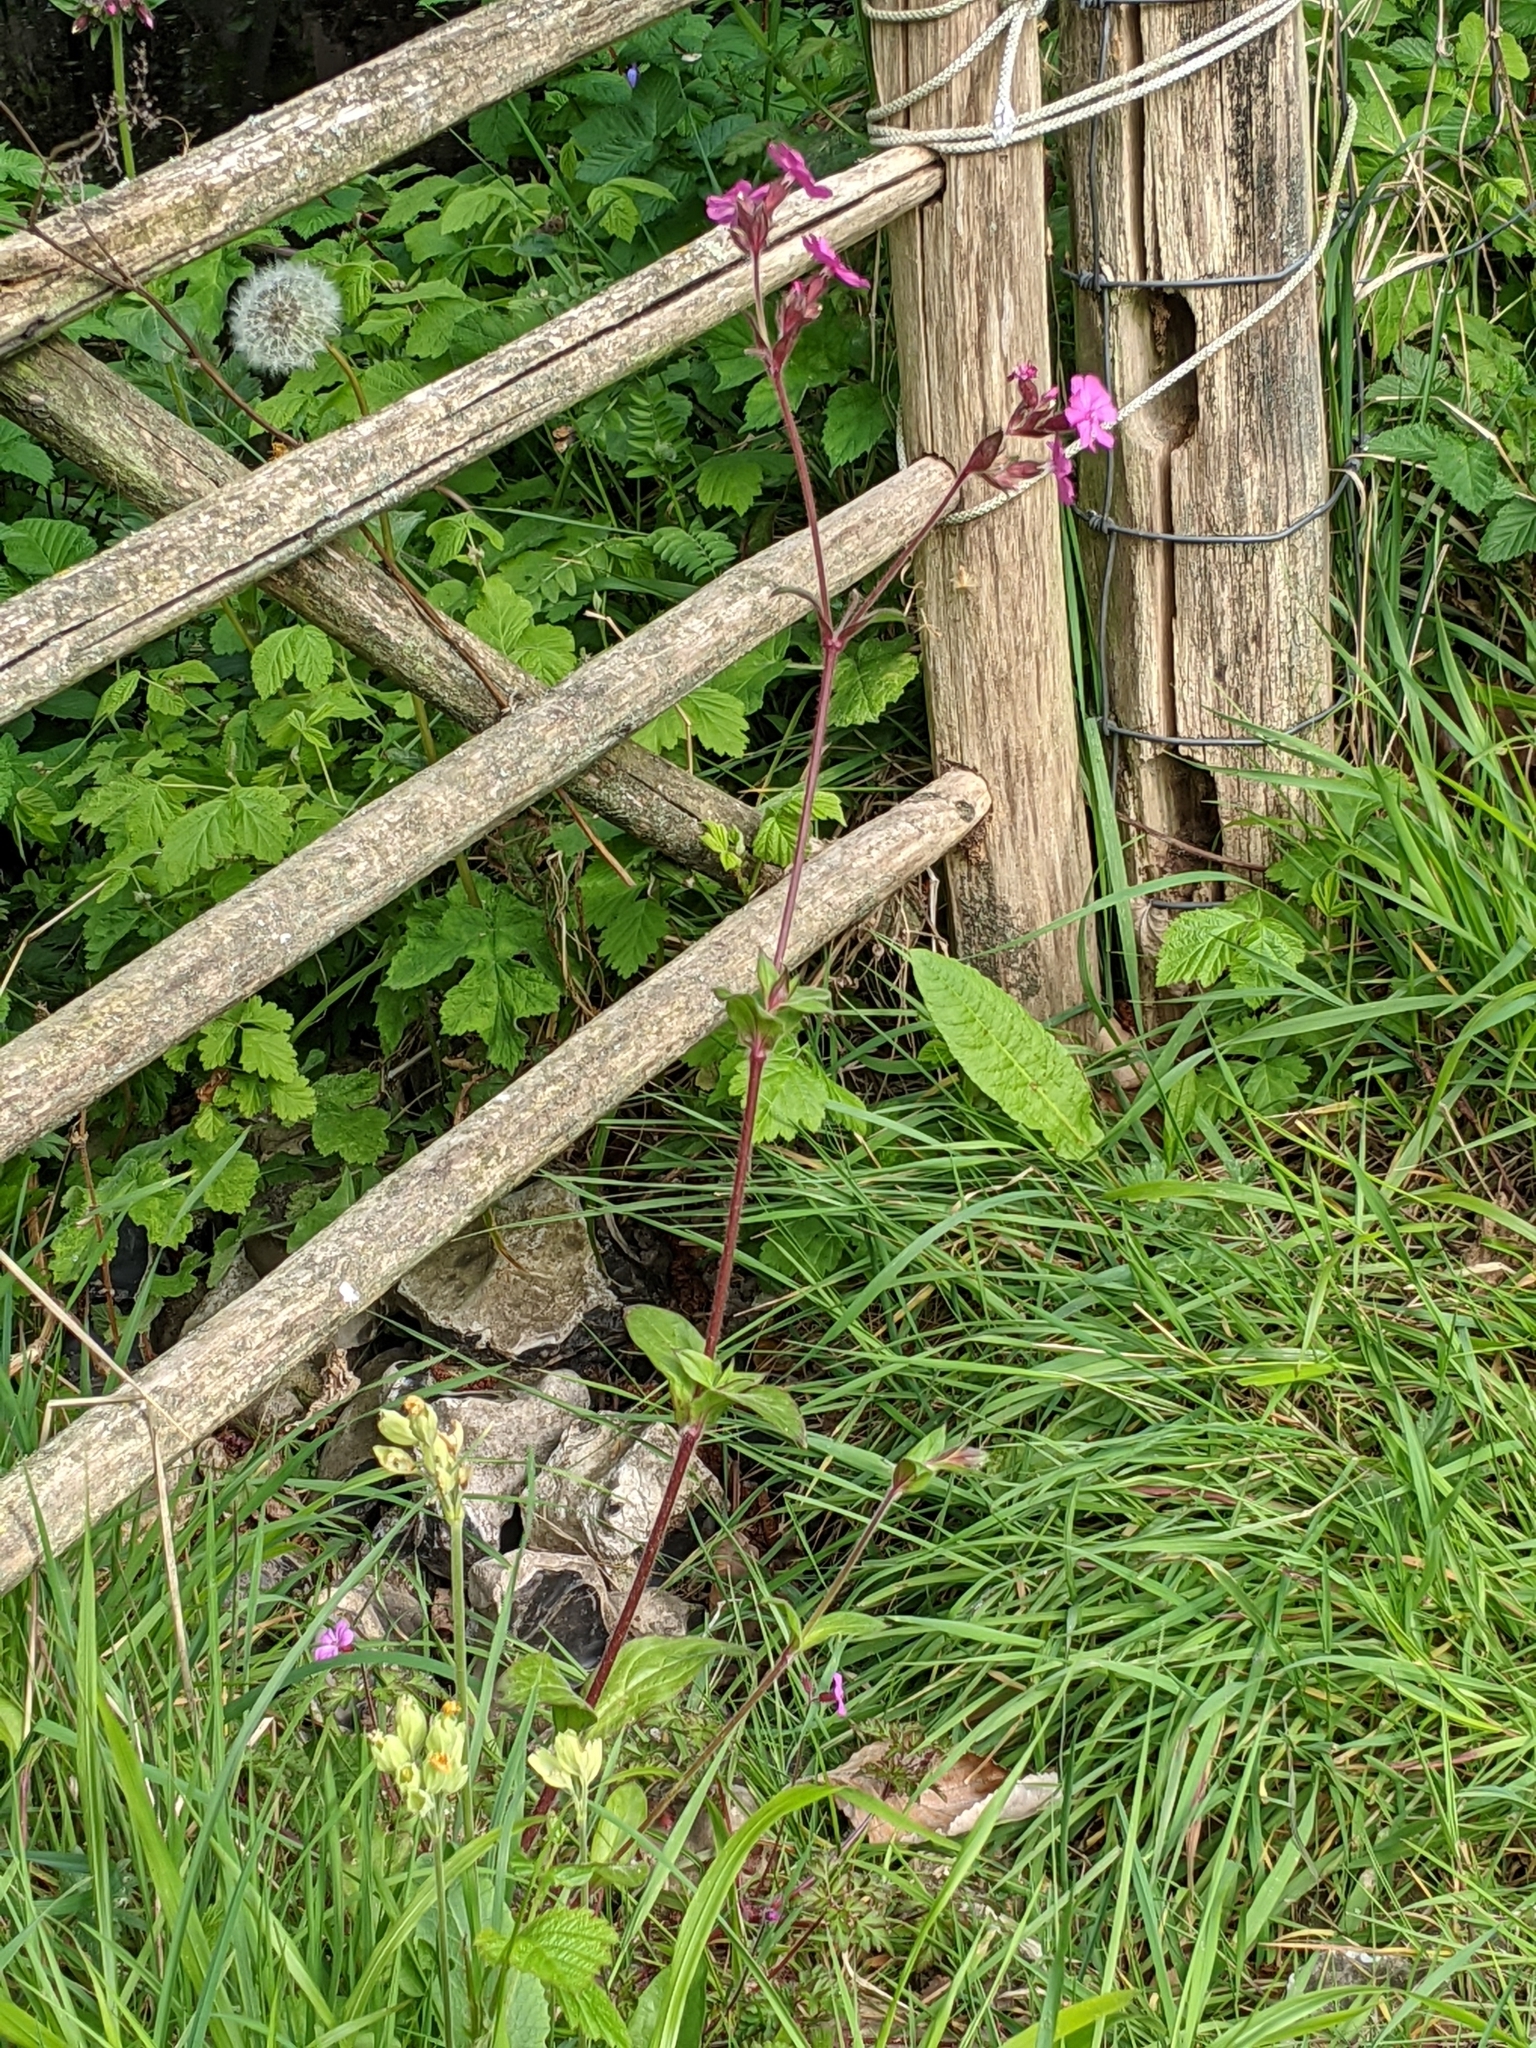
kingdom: Plantae
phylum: Tracheophyta
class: Magnoliopsida
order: Caryophyllales
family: Caryophyllaceae
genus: Silene
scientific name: Silene dioica
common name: Red campion
